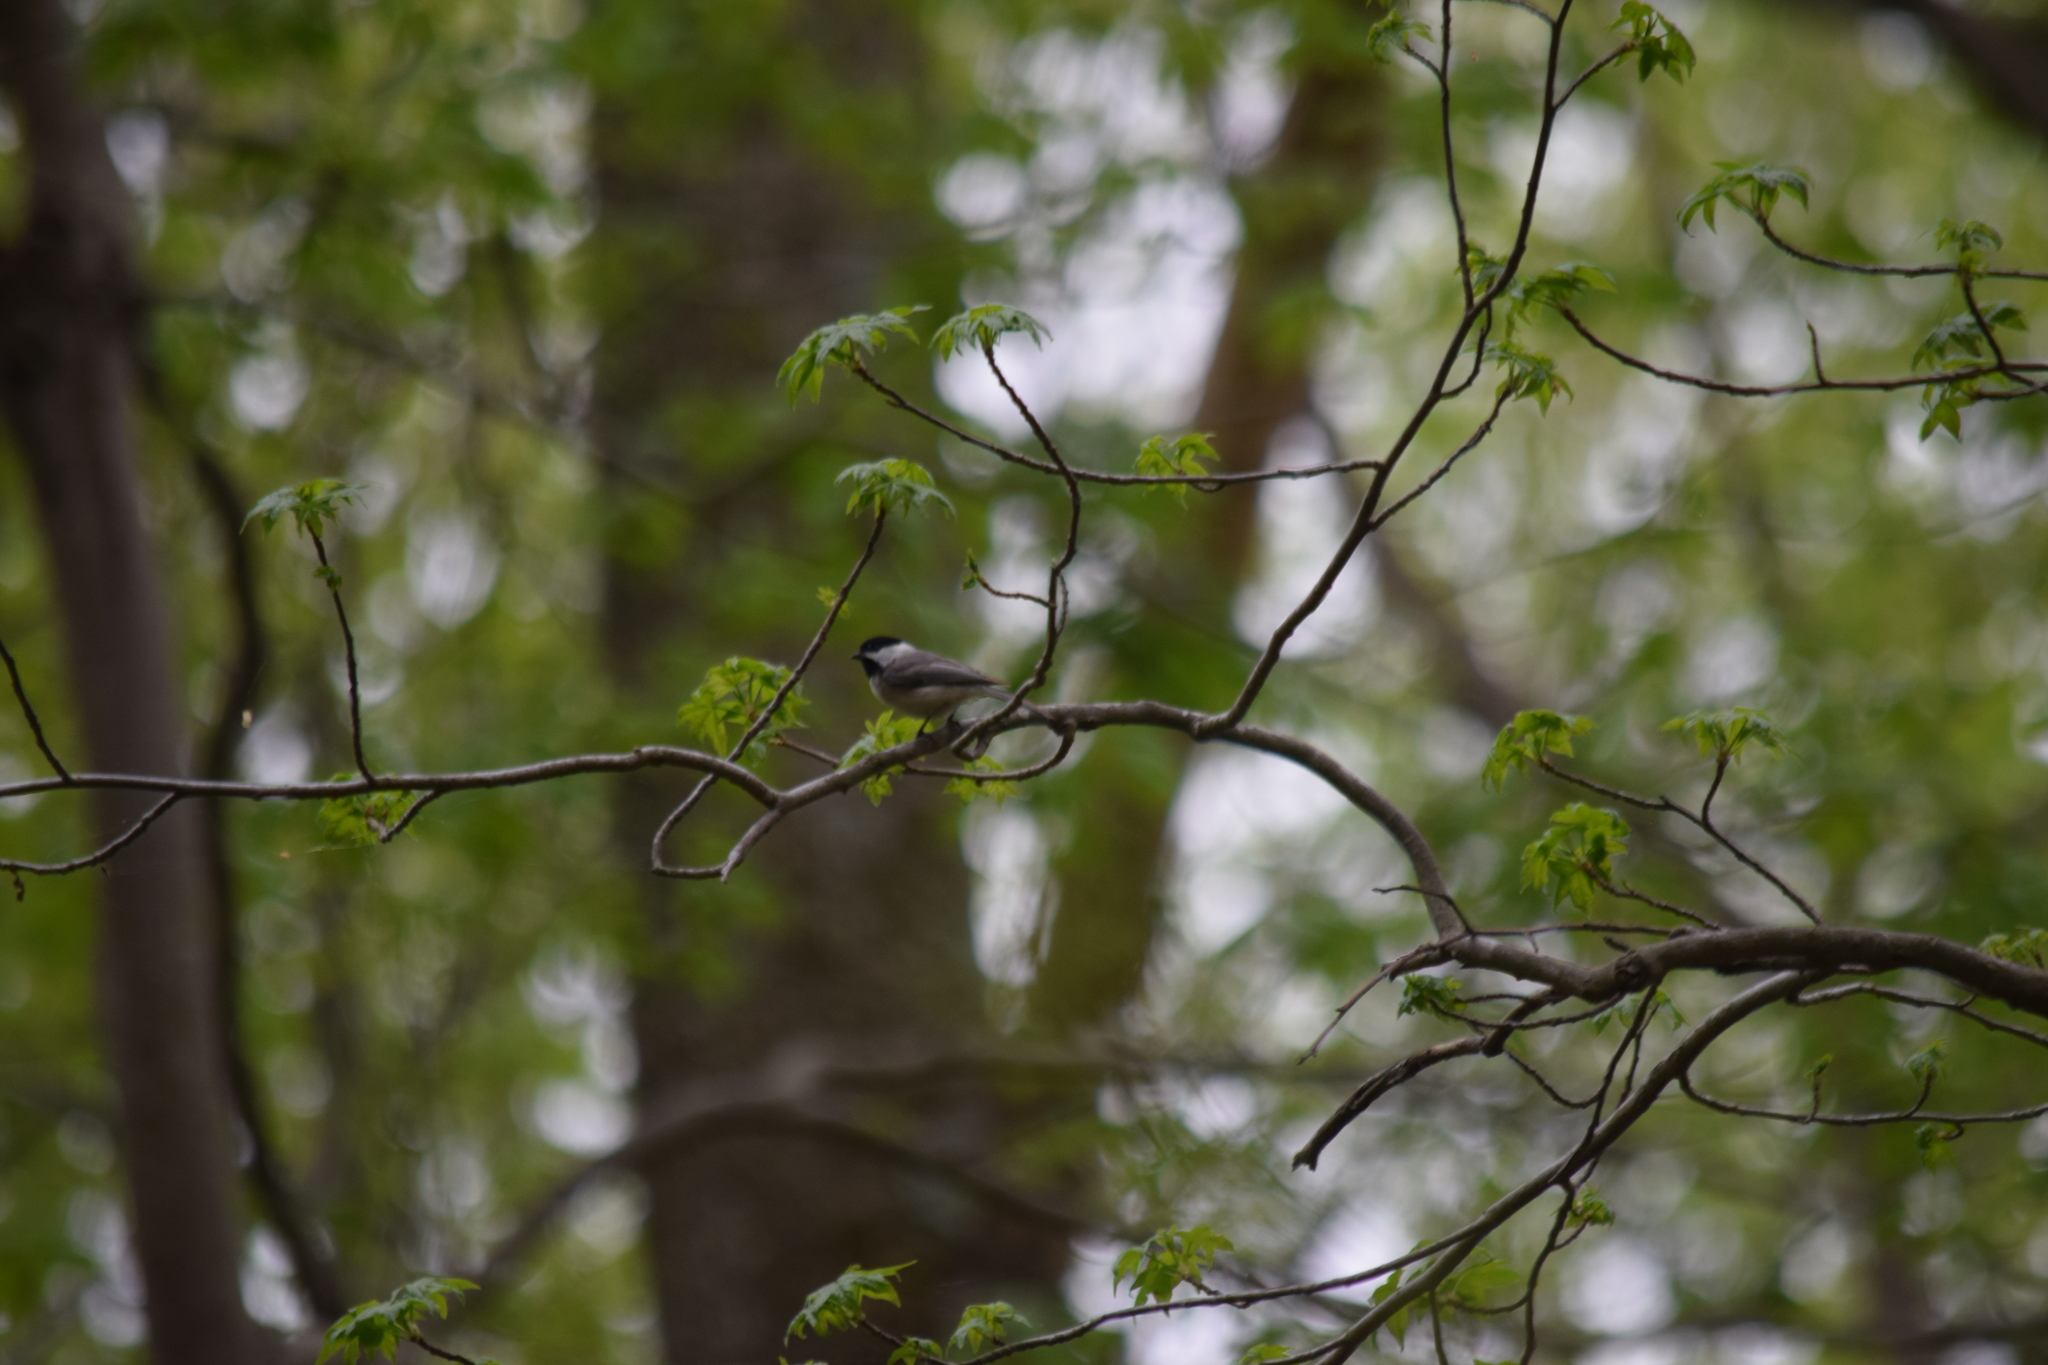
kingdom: Animalia
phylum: Chordata
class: Aves
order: Passeriformes
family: Paridae
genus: Poecile
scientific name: Poecile carolinensis
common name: Carolina chickadee
